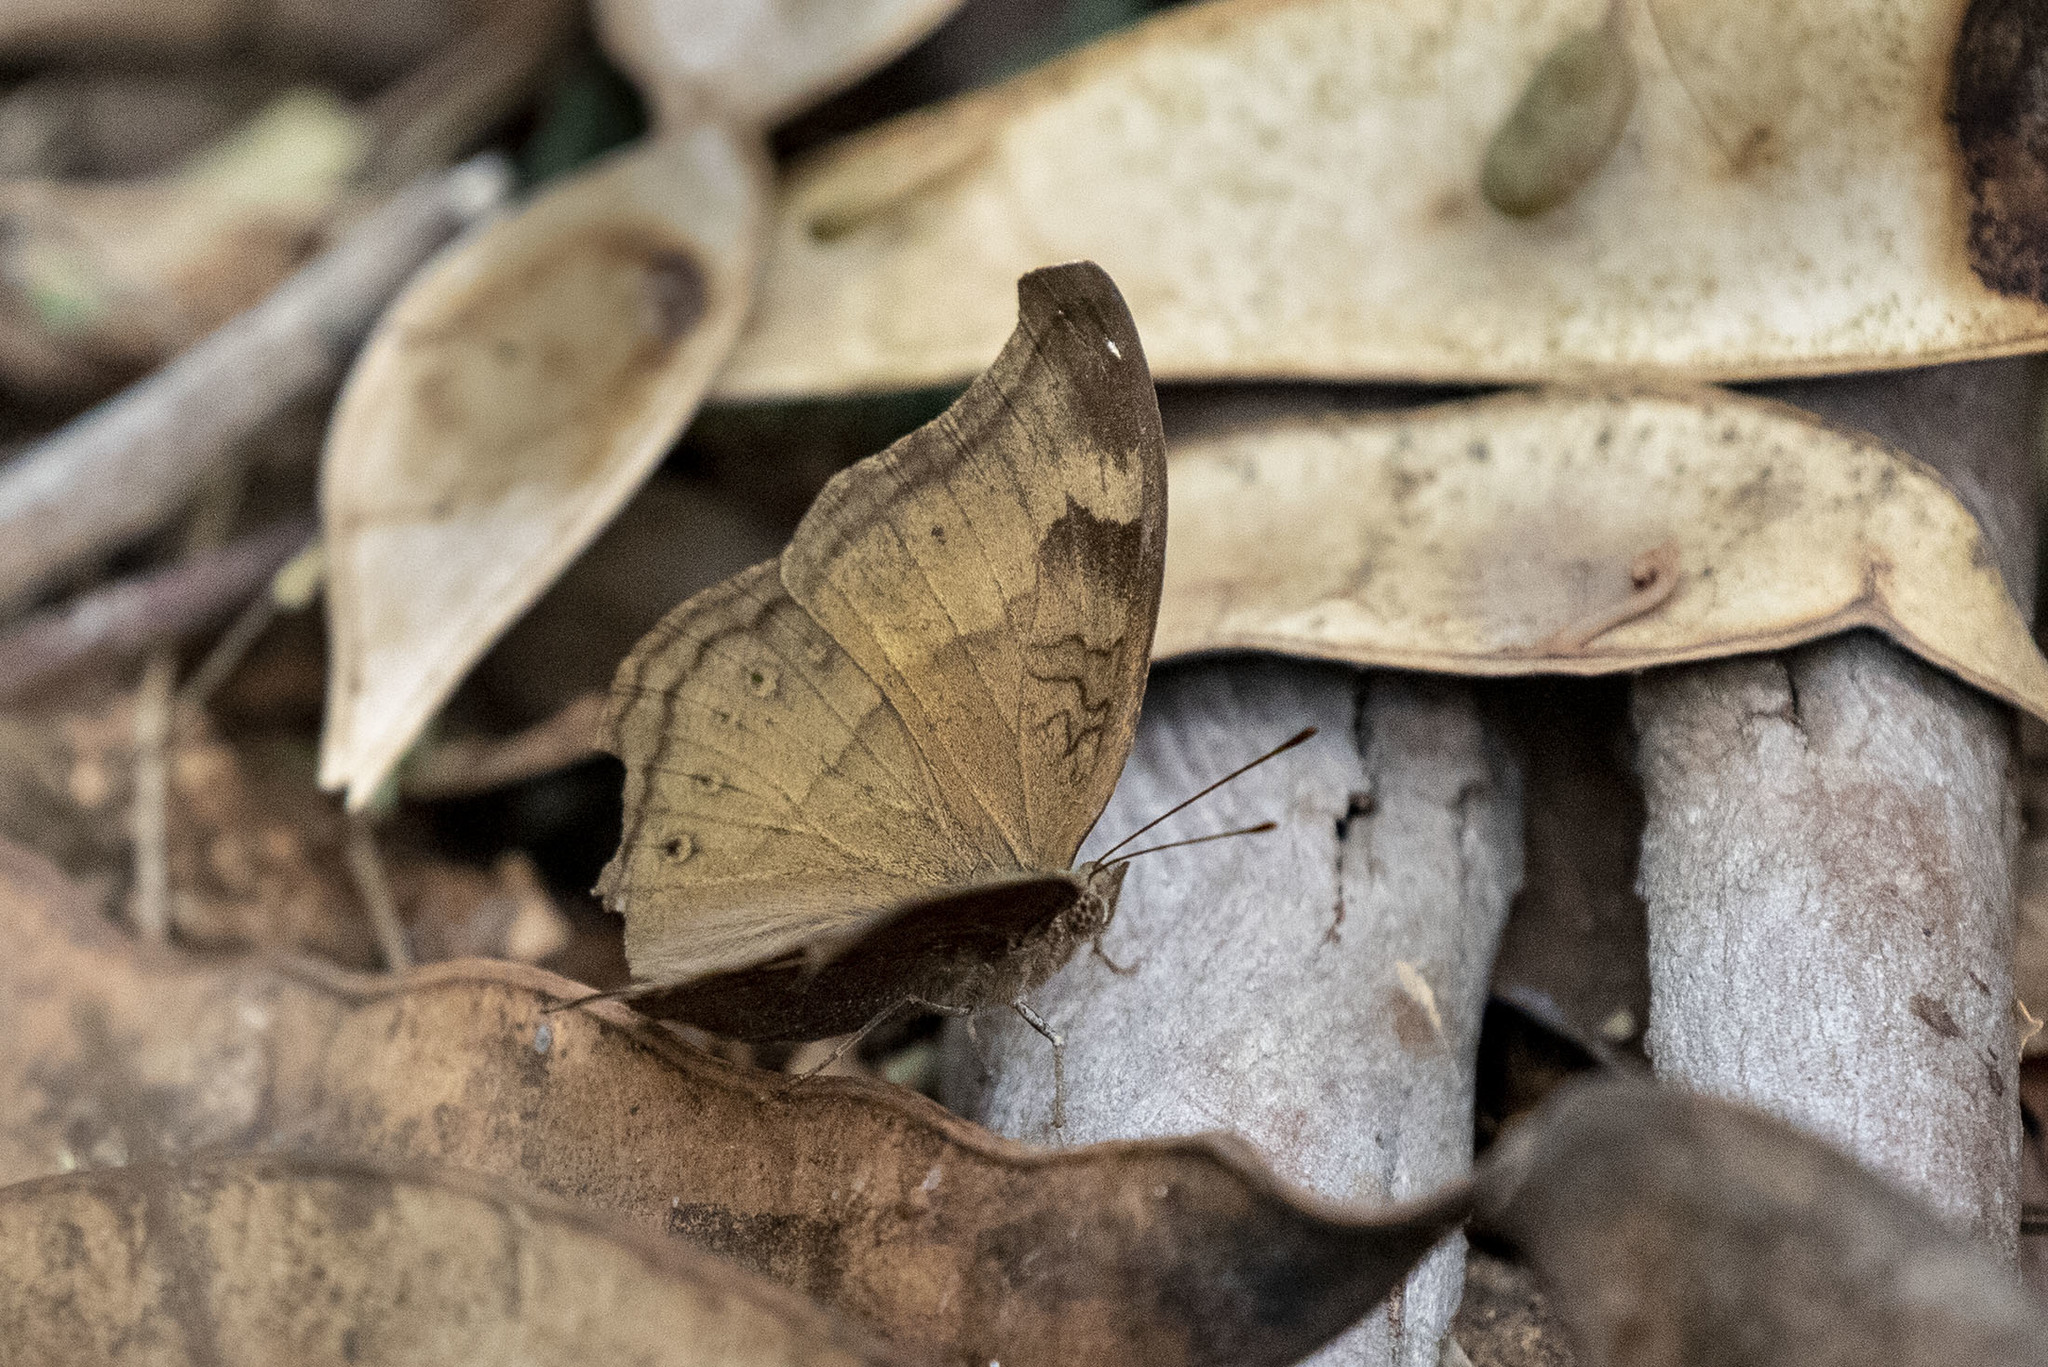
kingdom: Animalia
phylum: Arthropoda
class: Insecta
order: Lepidoptera
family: Nymphalidae
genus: Junonia
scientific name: Junonia iphita
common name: Chocolate pansy
